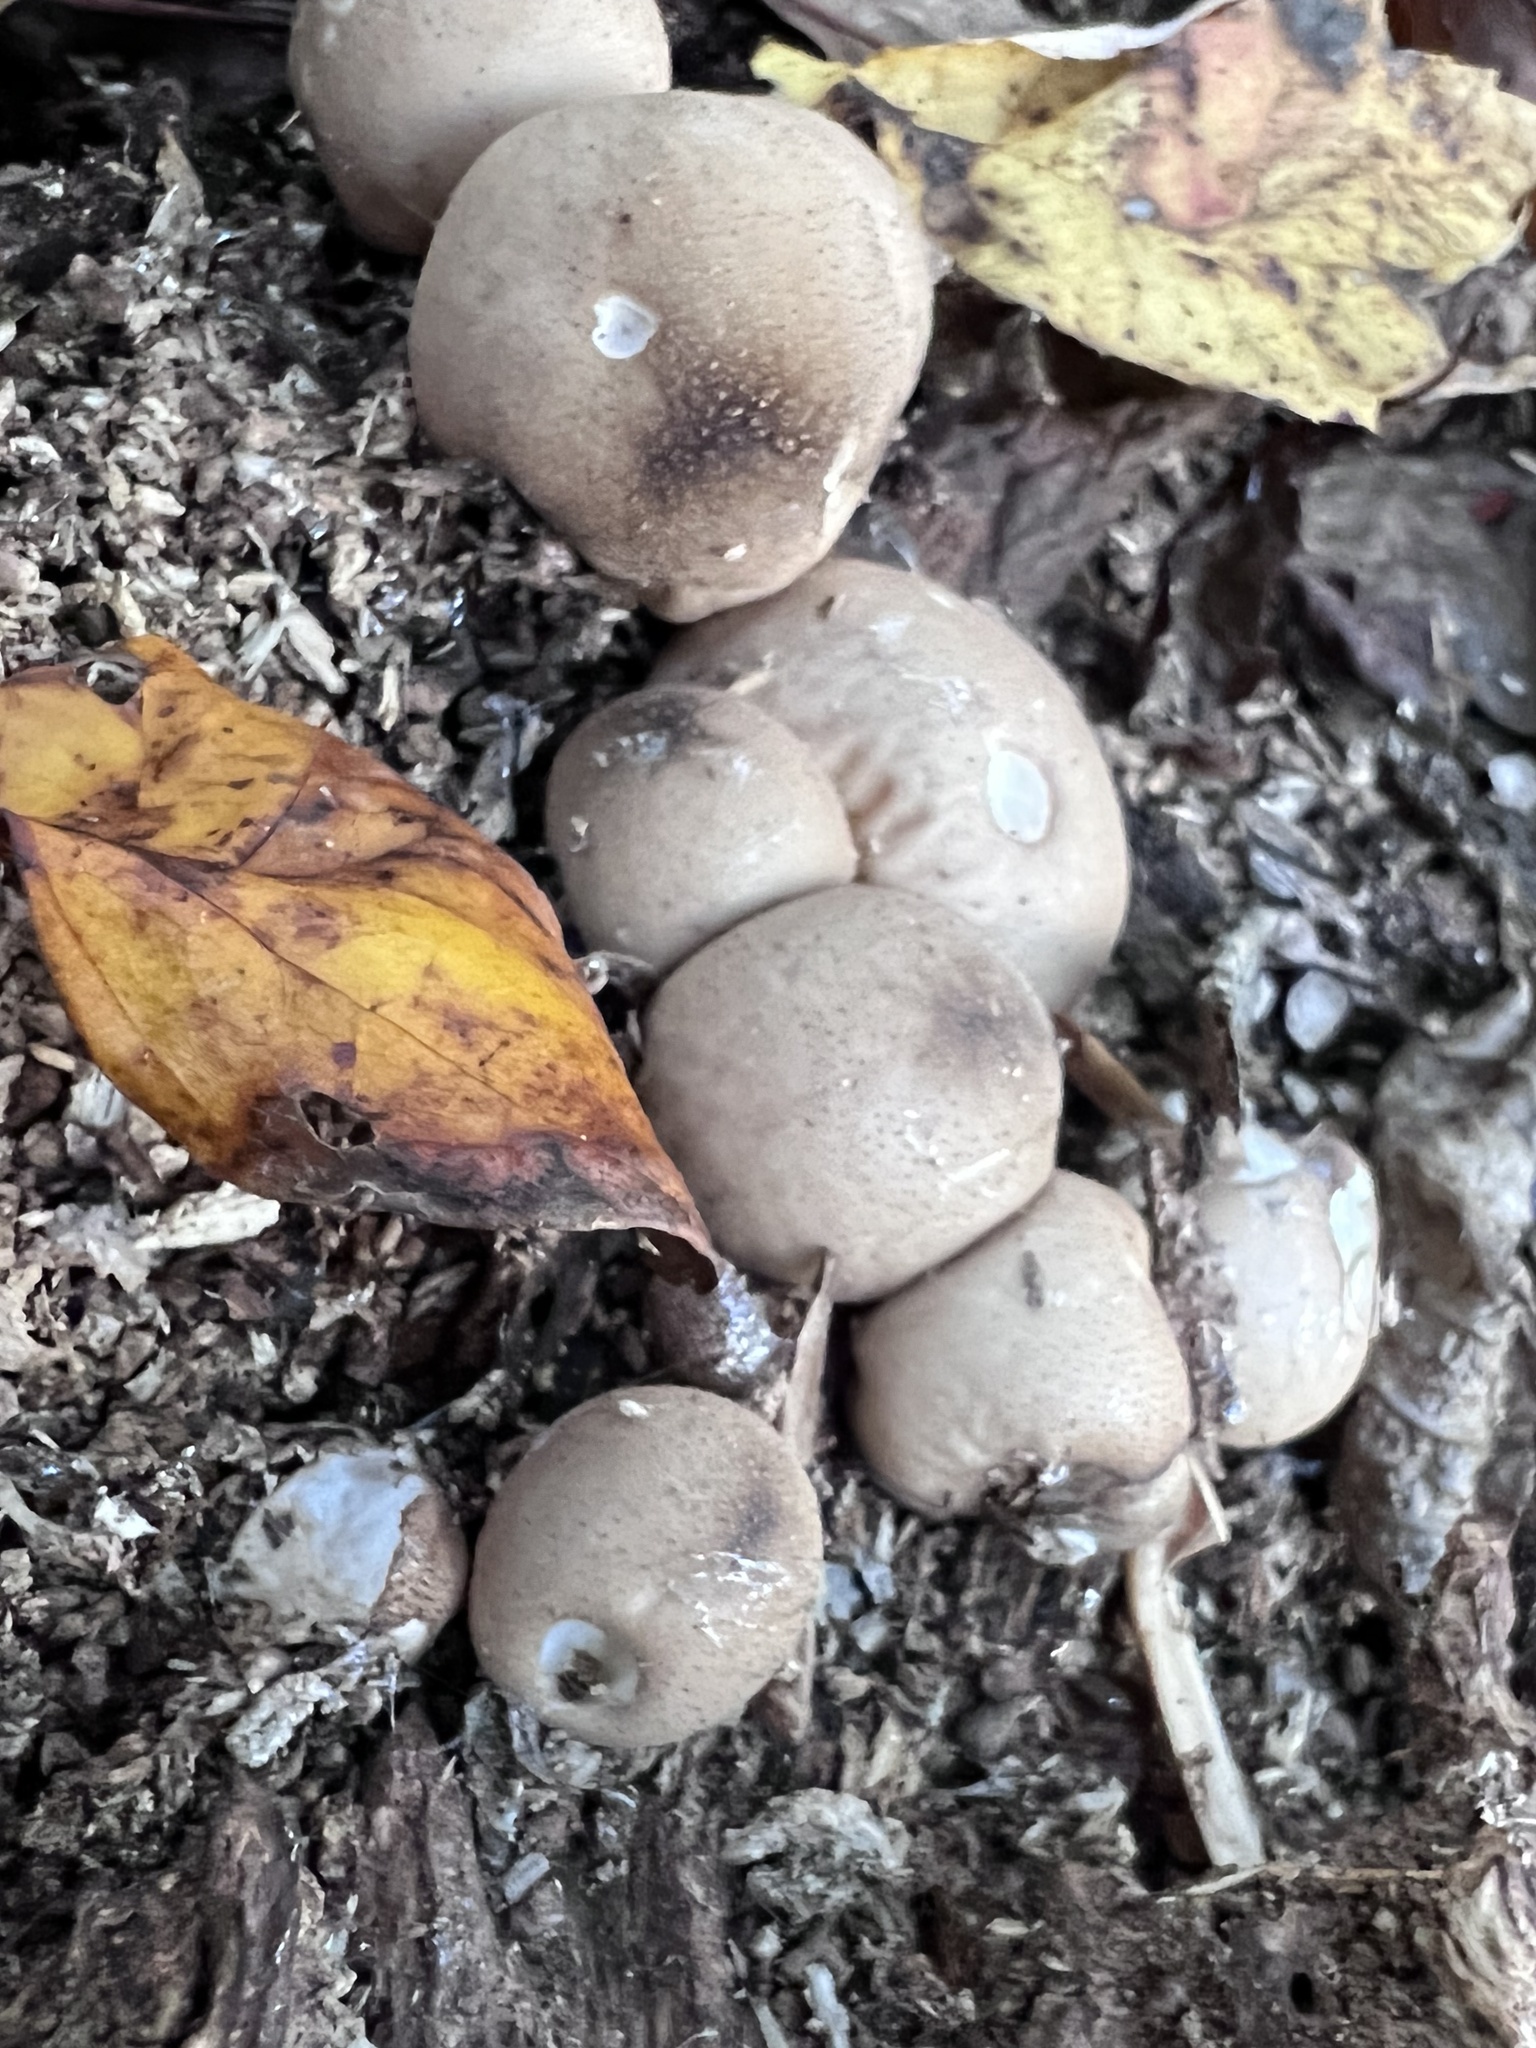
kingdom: Fungi
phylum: Basidiomycota
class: Agaricomycetes
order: Agaricales
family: Lycoperdaceae
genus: Apioperdon
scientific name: Apioperdon pyriforme
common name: Pear-shaped puffball
